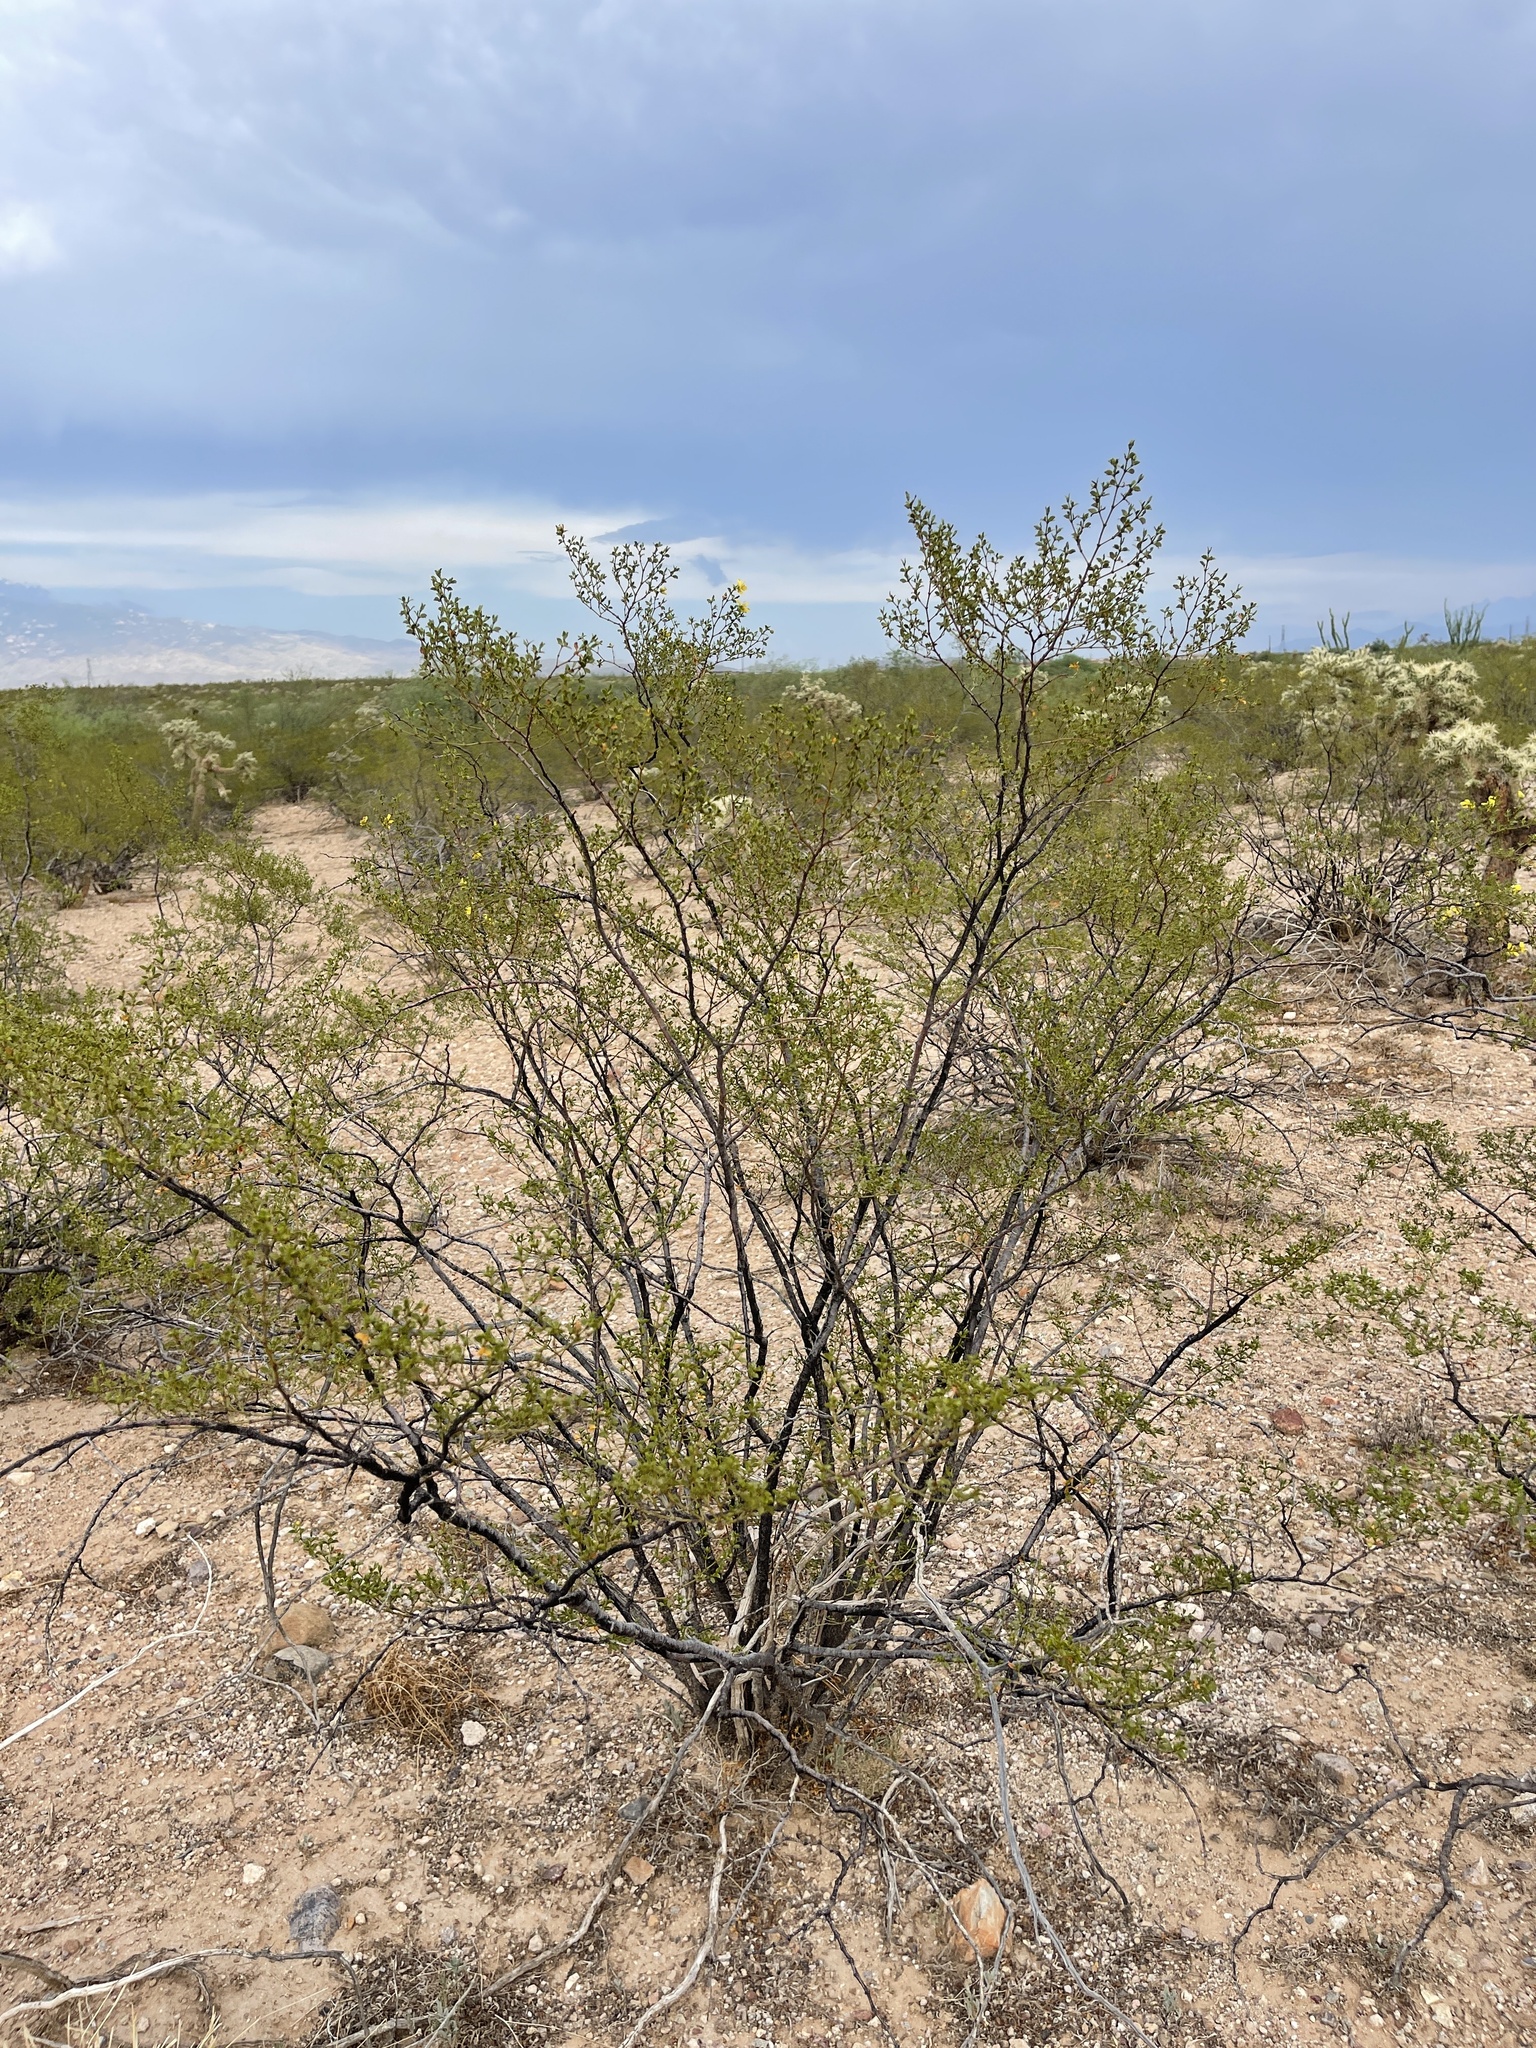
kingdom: Plantae
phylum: Tracheophyta
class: Magnoliopsida
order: Zygophyllales
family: Zygophyllaceae
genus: Larrea
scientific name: Larrea tridentata
